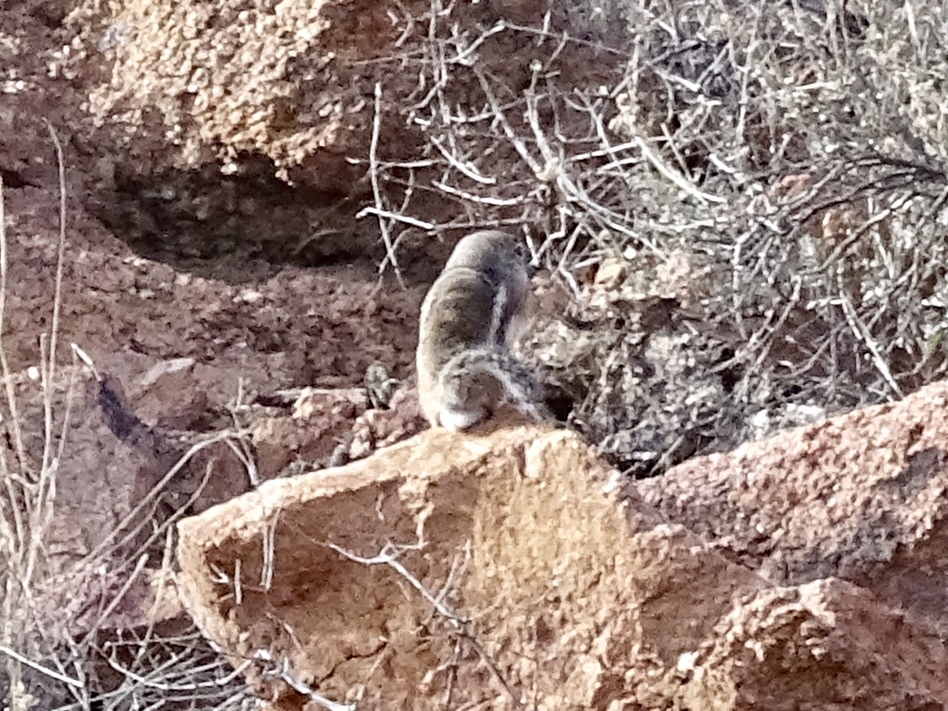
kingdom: Animalia
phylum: Chordata
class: Mammalia
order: Rodentia
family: Sciuridae
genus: Ammospermophilus
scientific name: Ammospermophilus interpres
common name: Texas antelope squirrel
